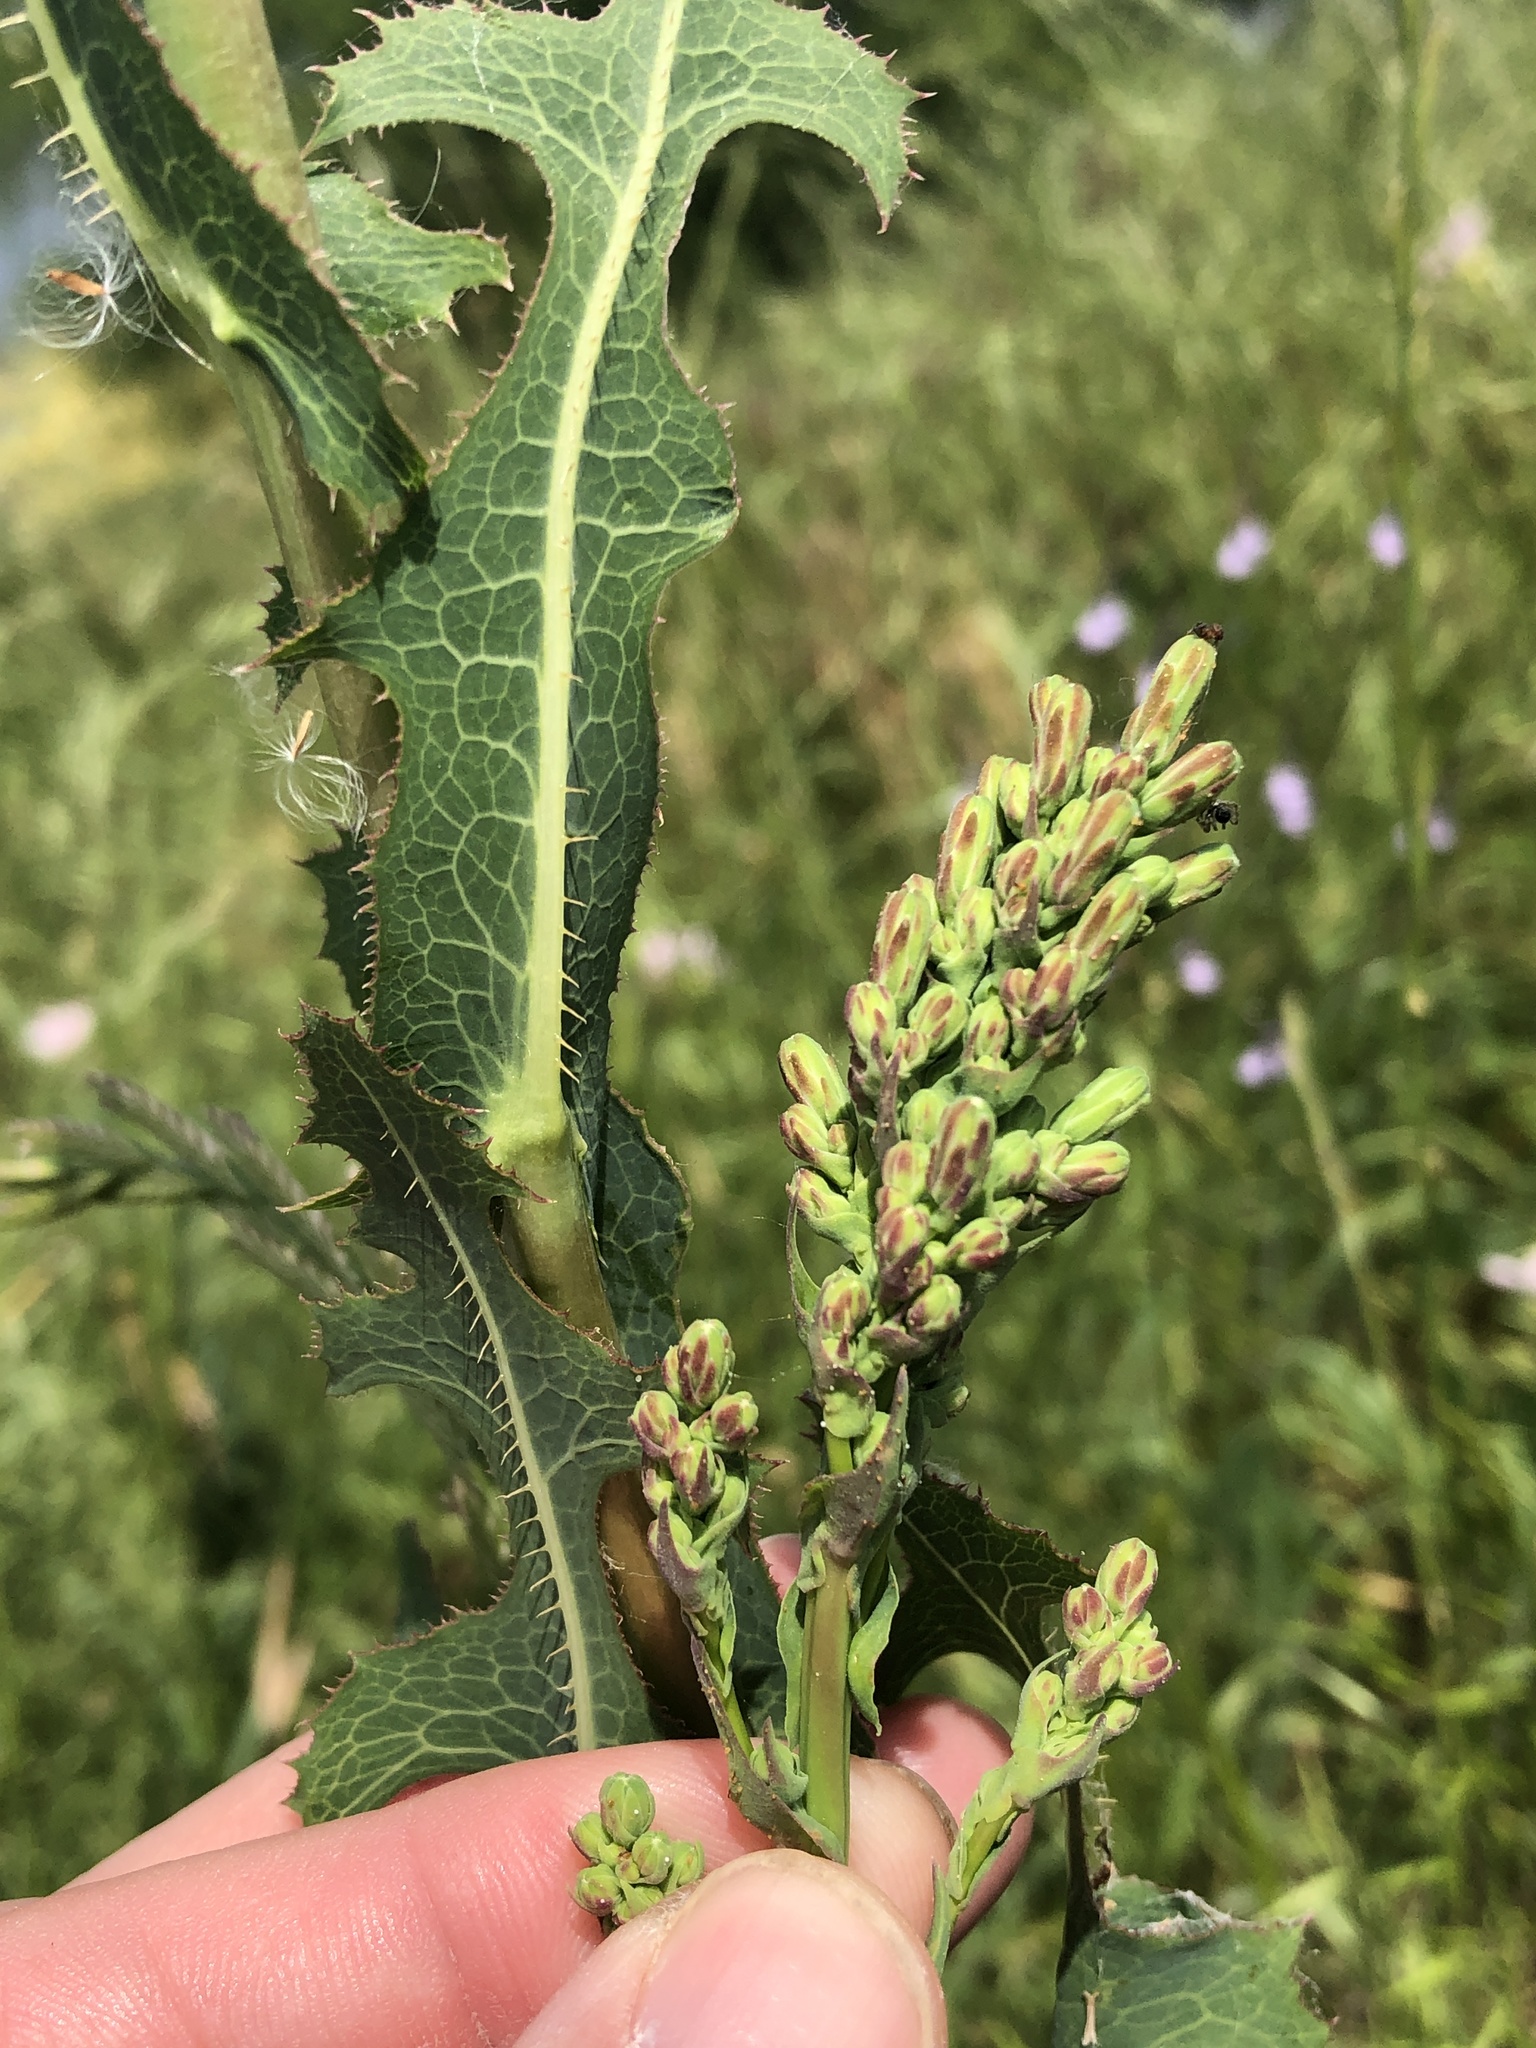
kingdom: Plantae
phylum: Tracheophyta
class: Magnoliopsida
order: Asterales
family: Asteraceae
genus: Lactuca
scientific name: Lactuca serriola
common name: Prickly lettuce
